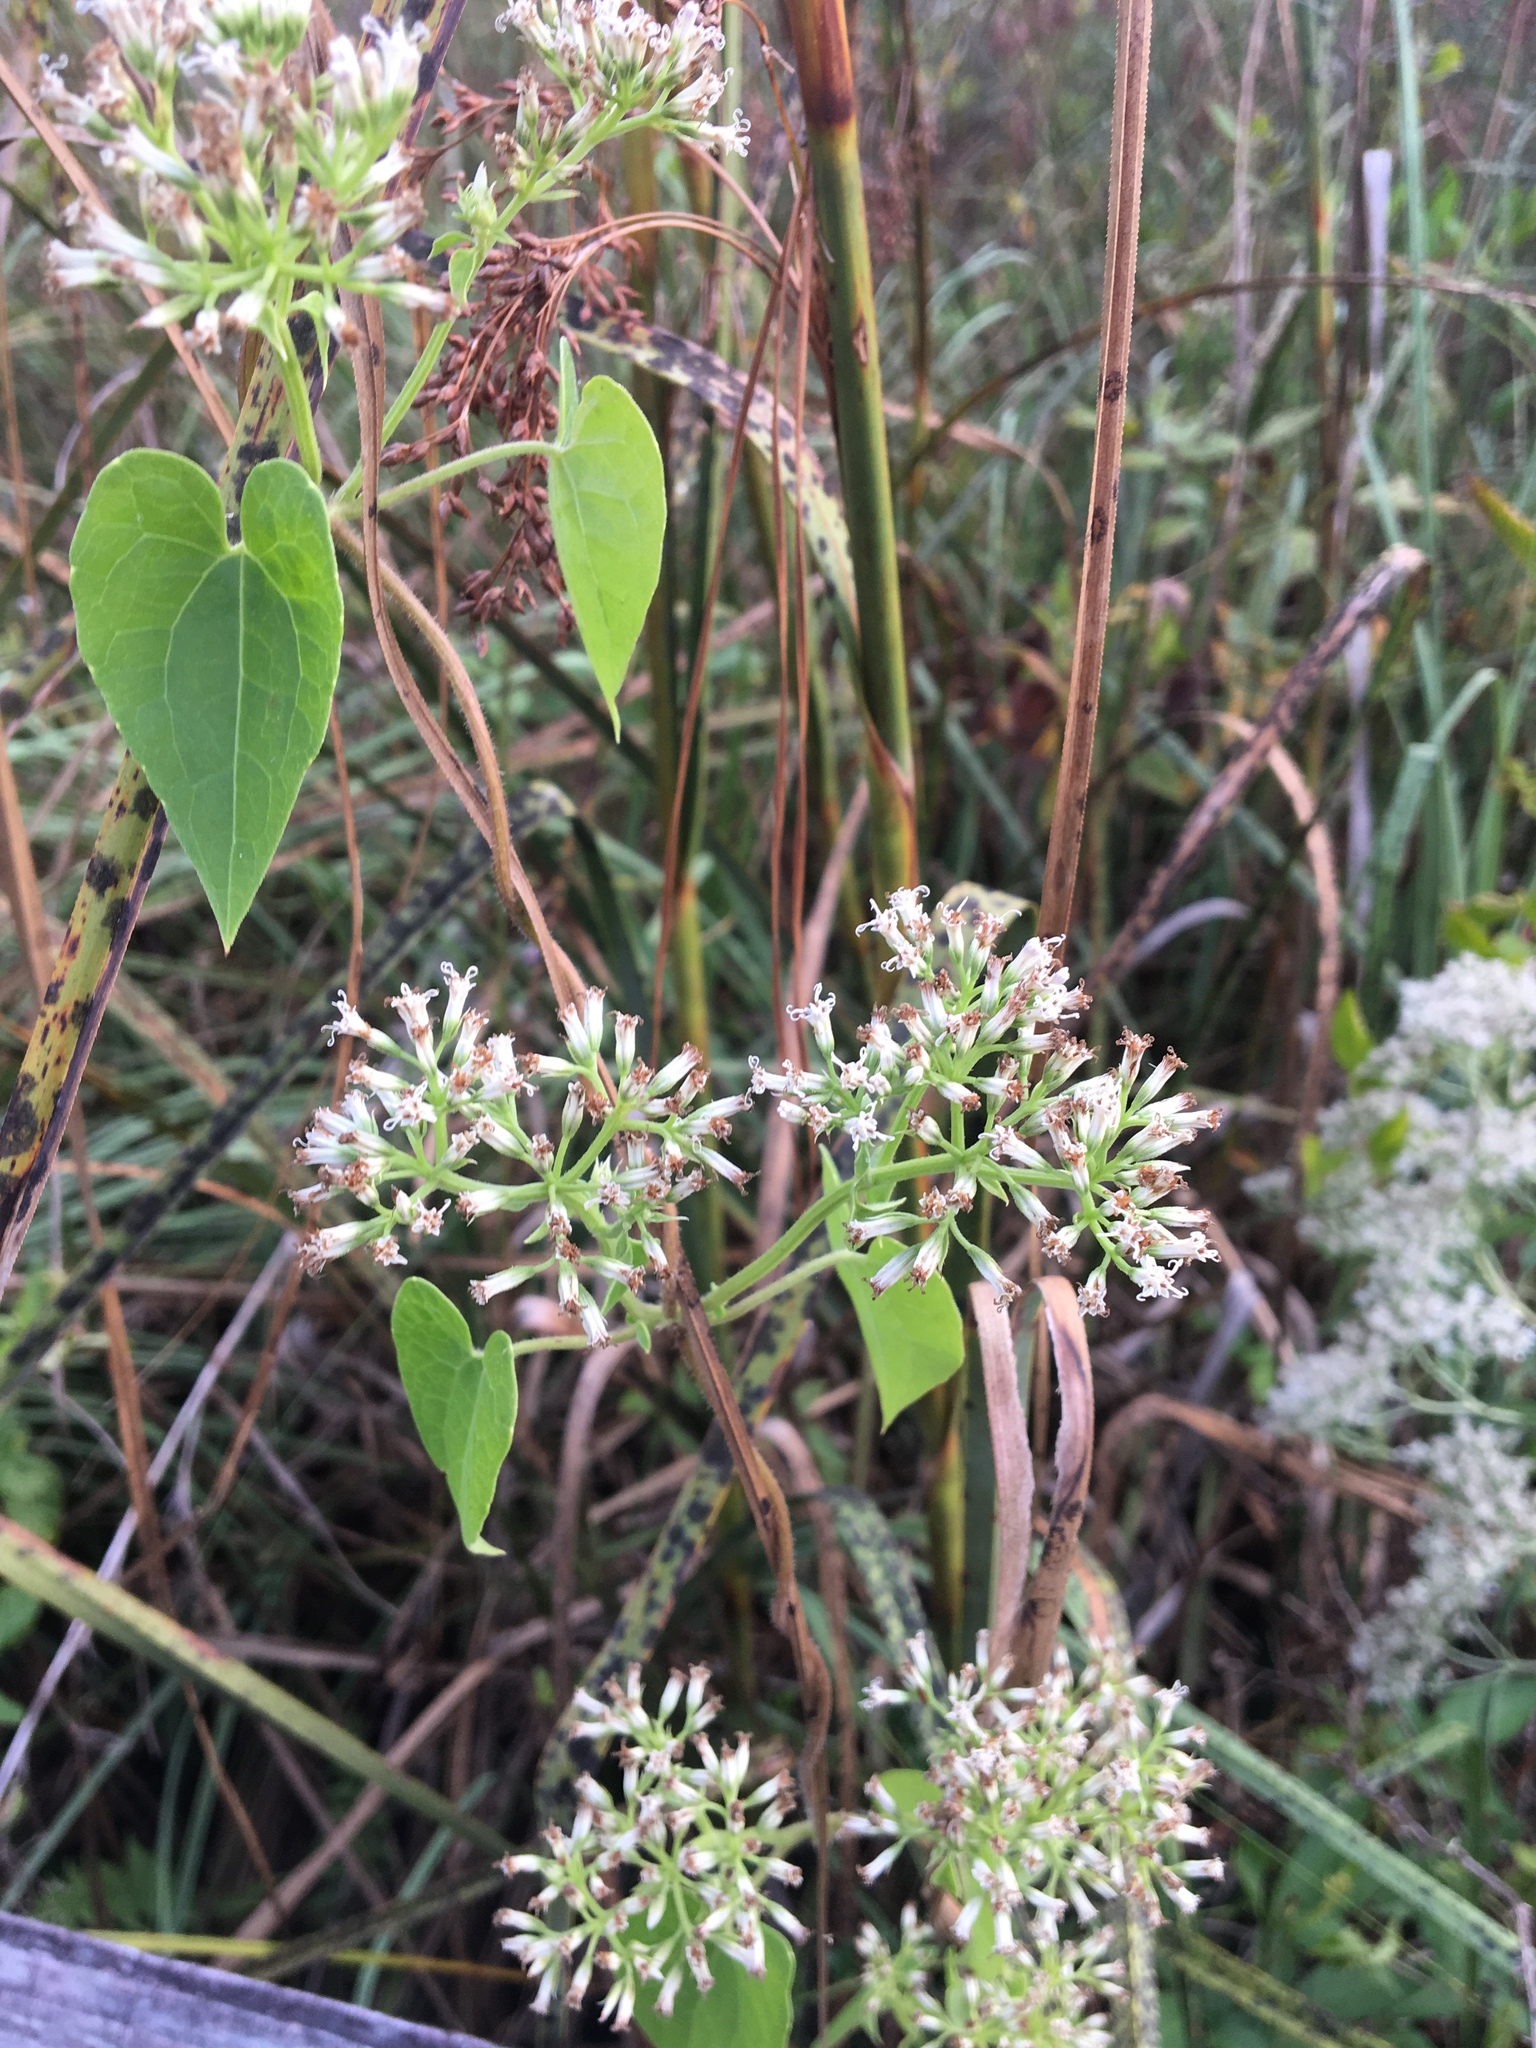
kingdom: Plantae
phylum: Tracheophyta
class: Magnoliopsida
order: Asterales
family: Asteraceae
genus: Mikania
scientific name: Mikania scandens
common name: Climbing hempvine
